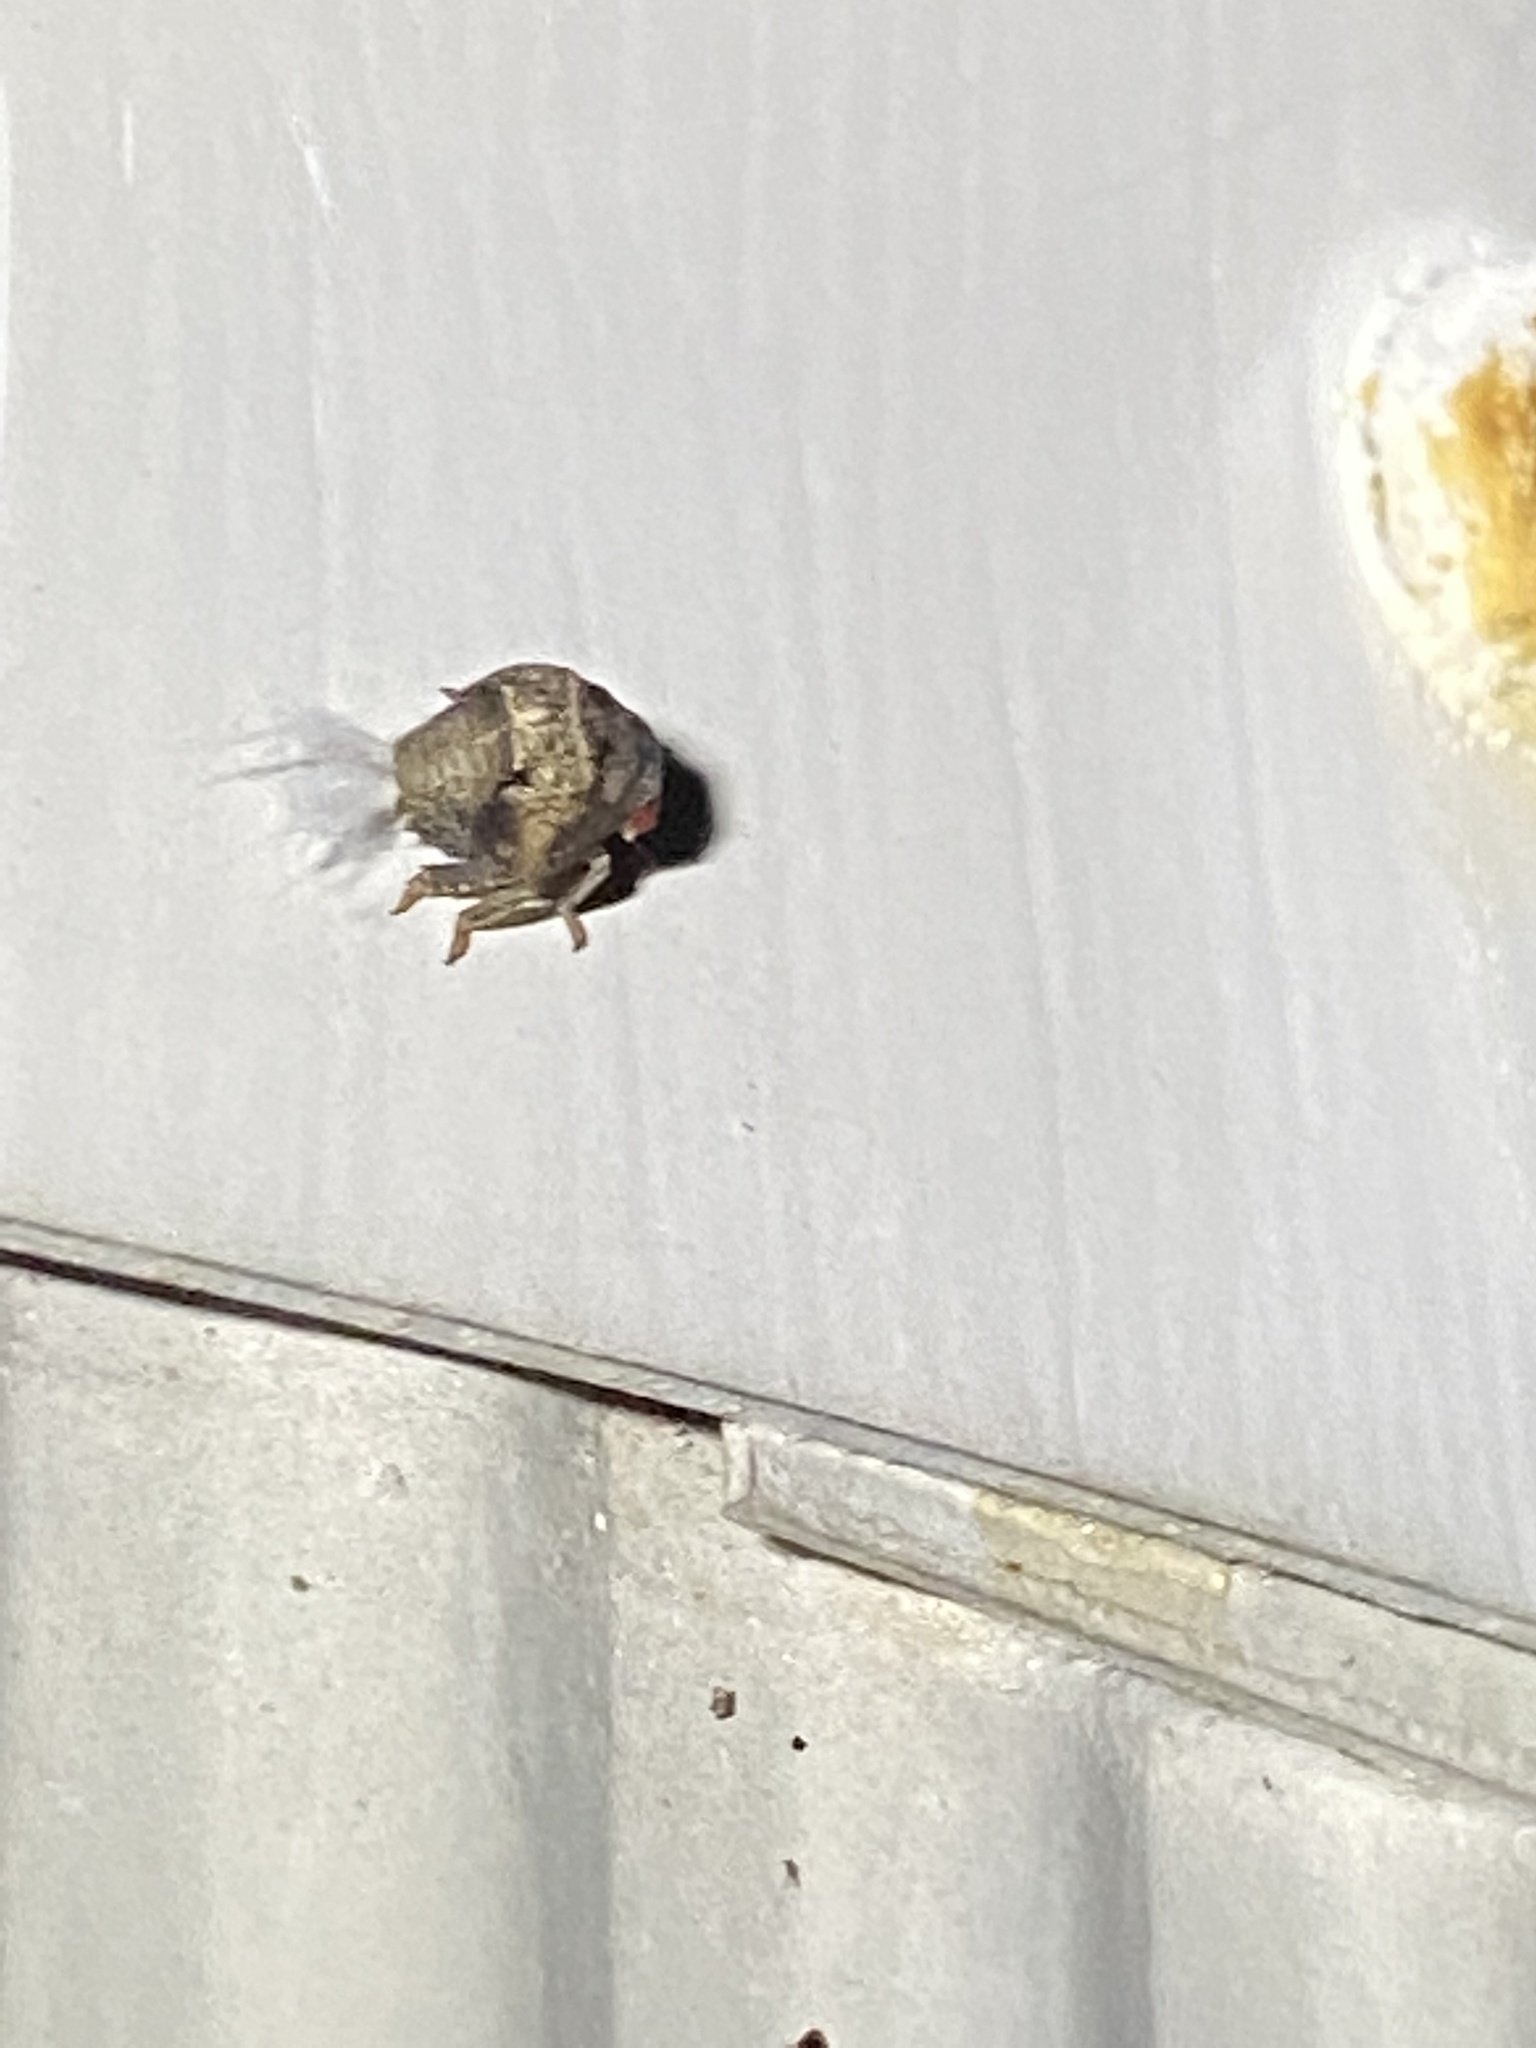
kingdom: Animalia
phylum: Arthropoda
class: Insecta
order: Hemiptera
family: Acanaloniidae
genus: Acanalonia
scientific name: Acanalonia bivittata
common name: Two-striped planthopper
